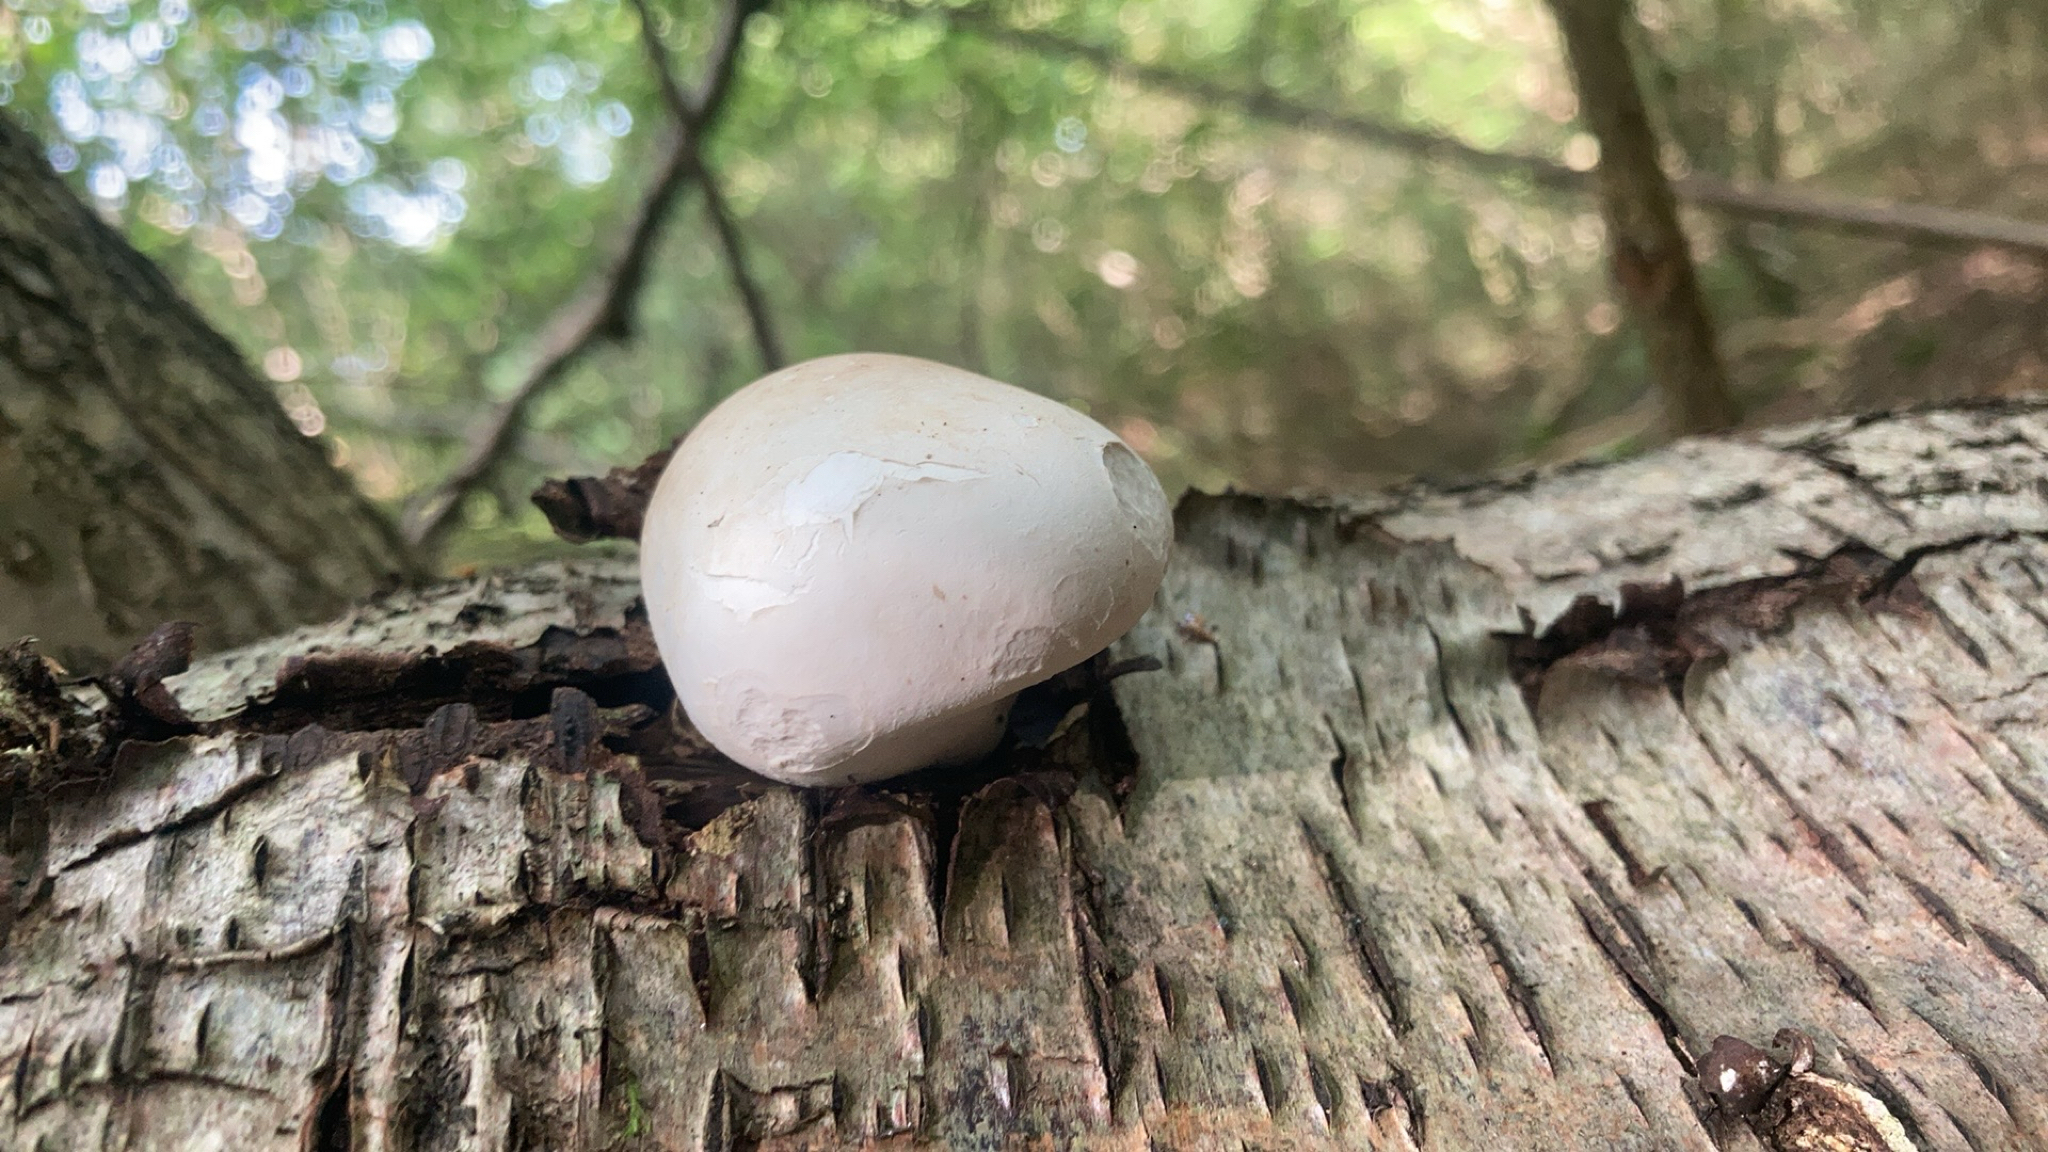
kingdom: Fungi
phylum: Basidiomycota
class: Agaricomycetes
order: Polyporales
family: Fomitopsidaceae
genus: Fomitopsis
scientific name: Fomitopsis betulina
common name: Birch polypore
